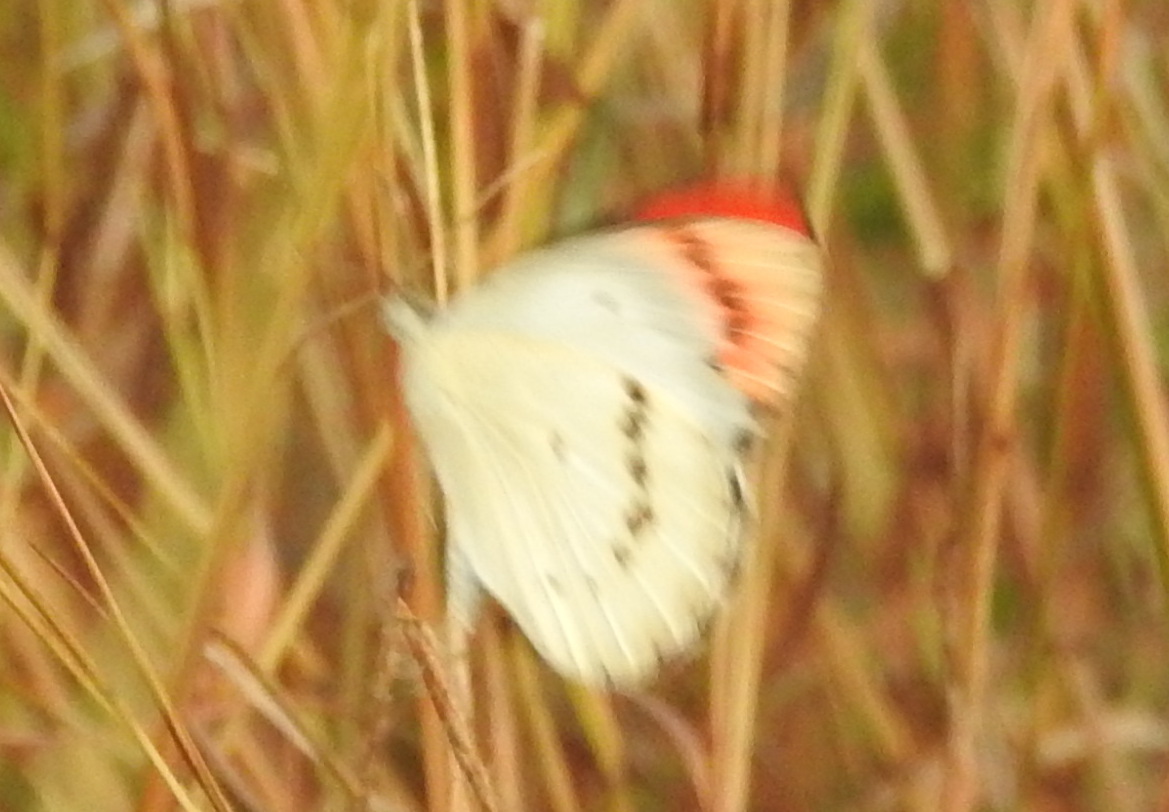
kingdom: Animalia
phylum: Arthropoda
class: Insecta
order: Lepidoptera
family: Pieridae
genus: Colotis
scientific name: Colotis danae
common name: Crimson tip
